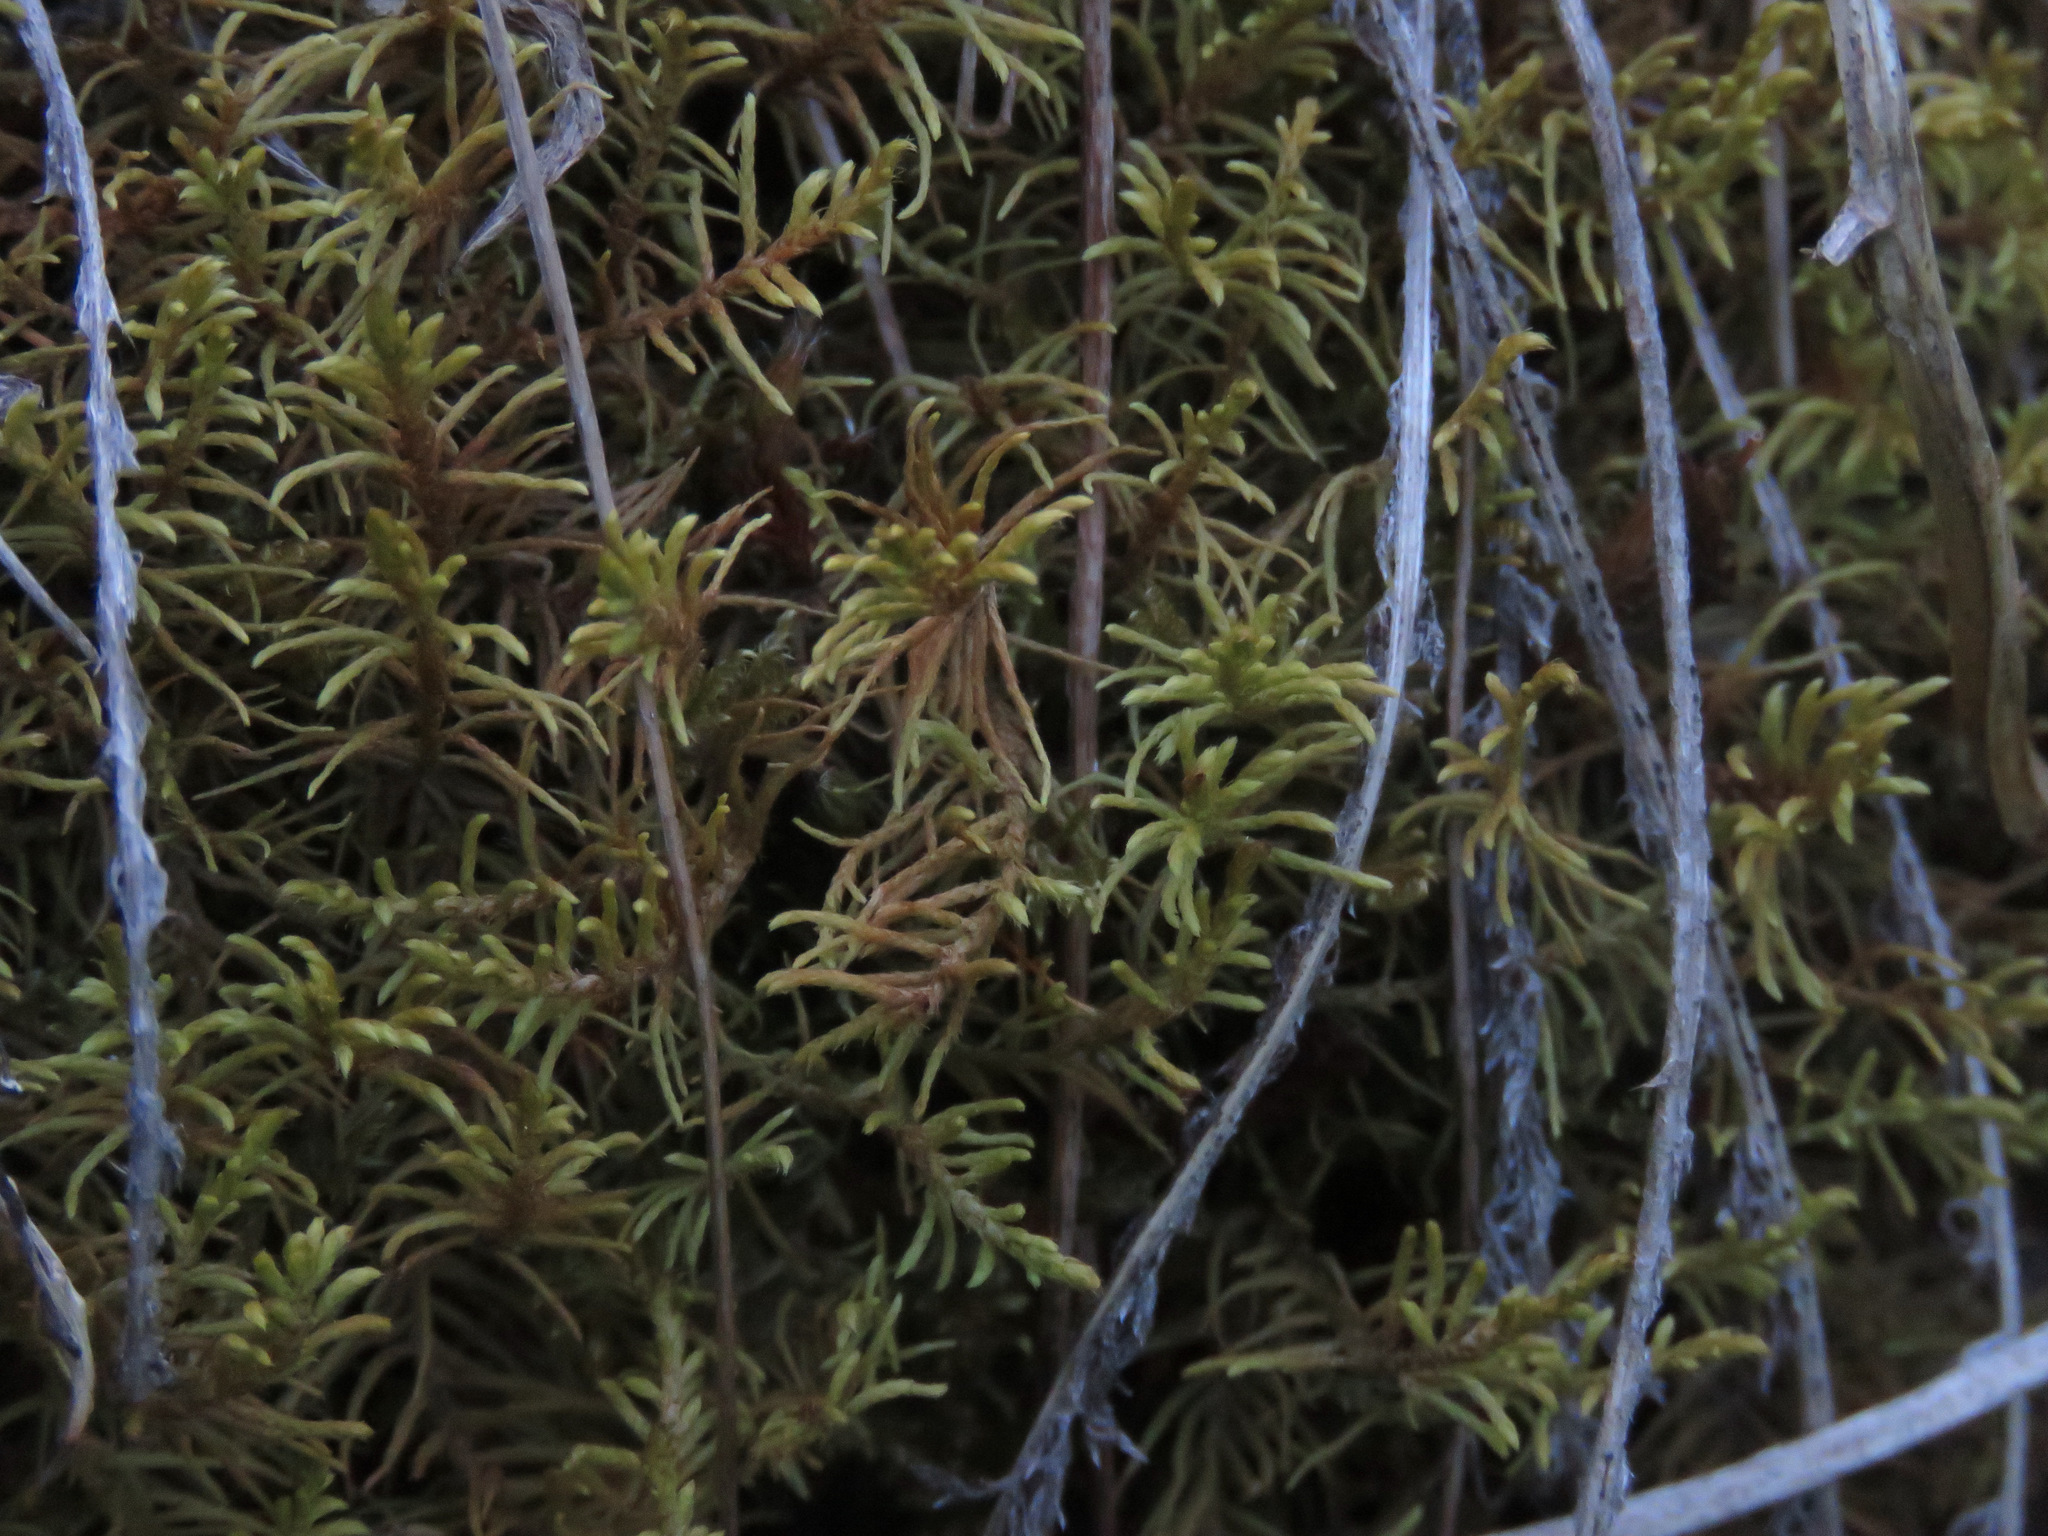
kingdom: Plantae
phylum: Bryophyta
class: Bryopsida
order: Hypnales
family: Thuidiaceae
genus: Abietinella
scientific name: Abietinella abietina
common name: Wiry fern moss
